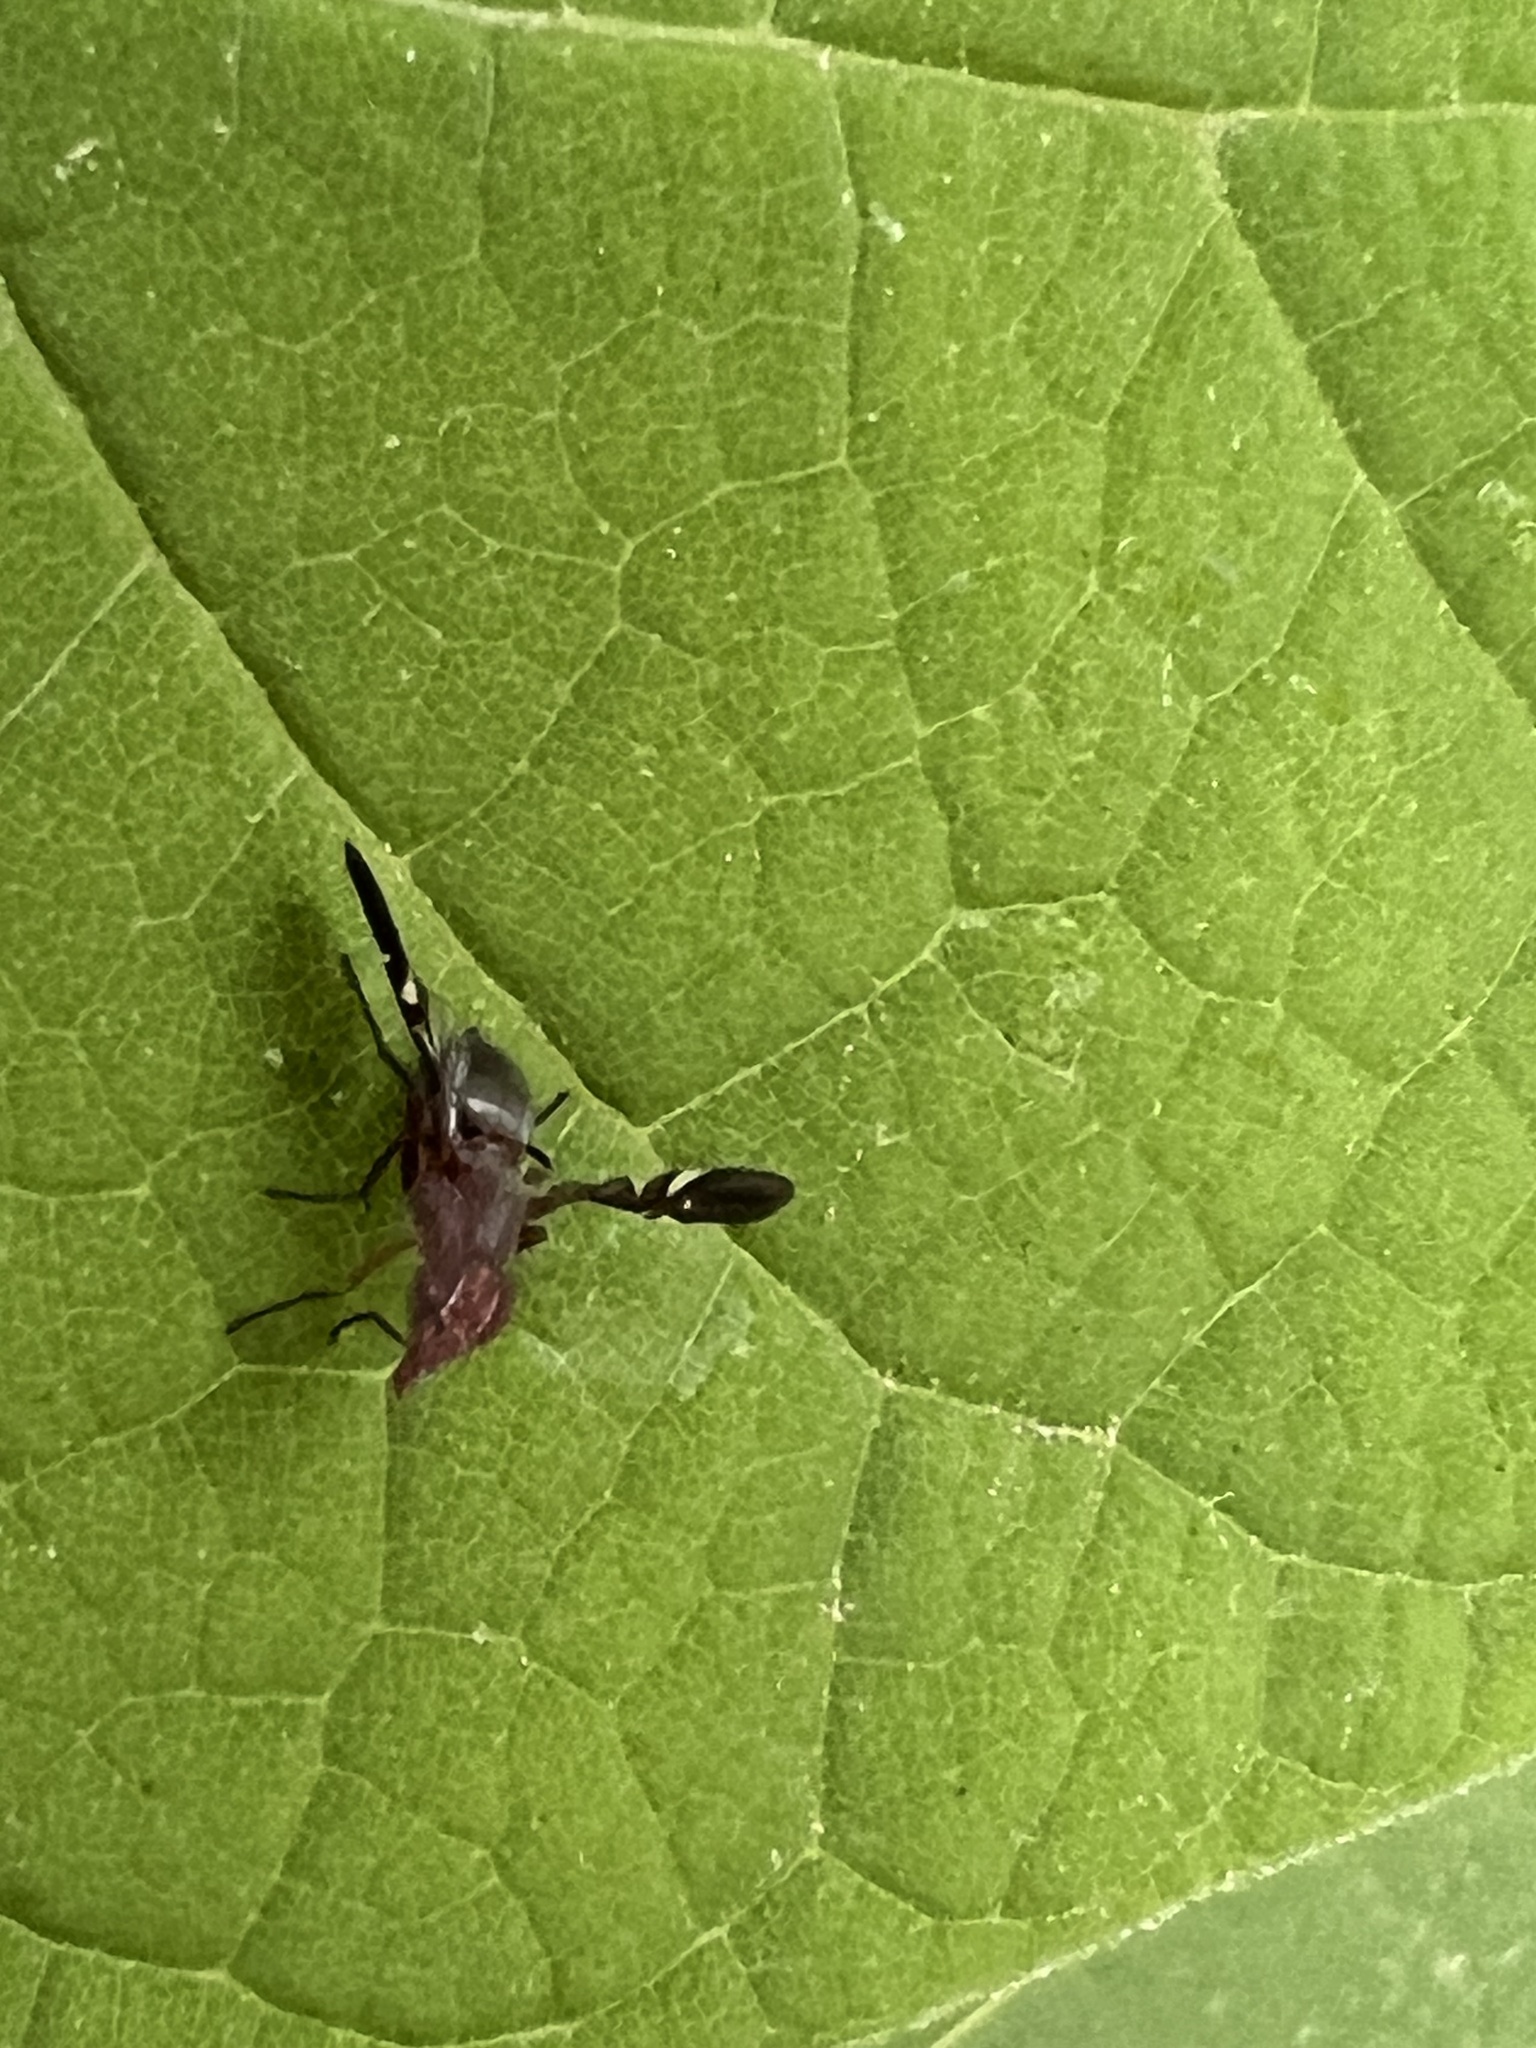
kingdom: Animalia
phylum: Arthropoda
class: Insecta
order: Diptera
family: Ulidiidae
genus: Delphinia
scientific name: Delphinia picta
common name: Common picture-winged fly
